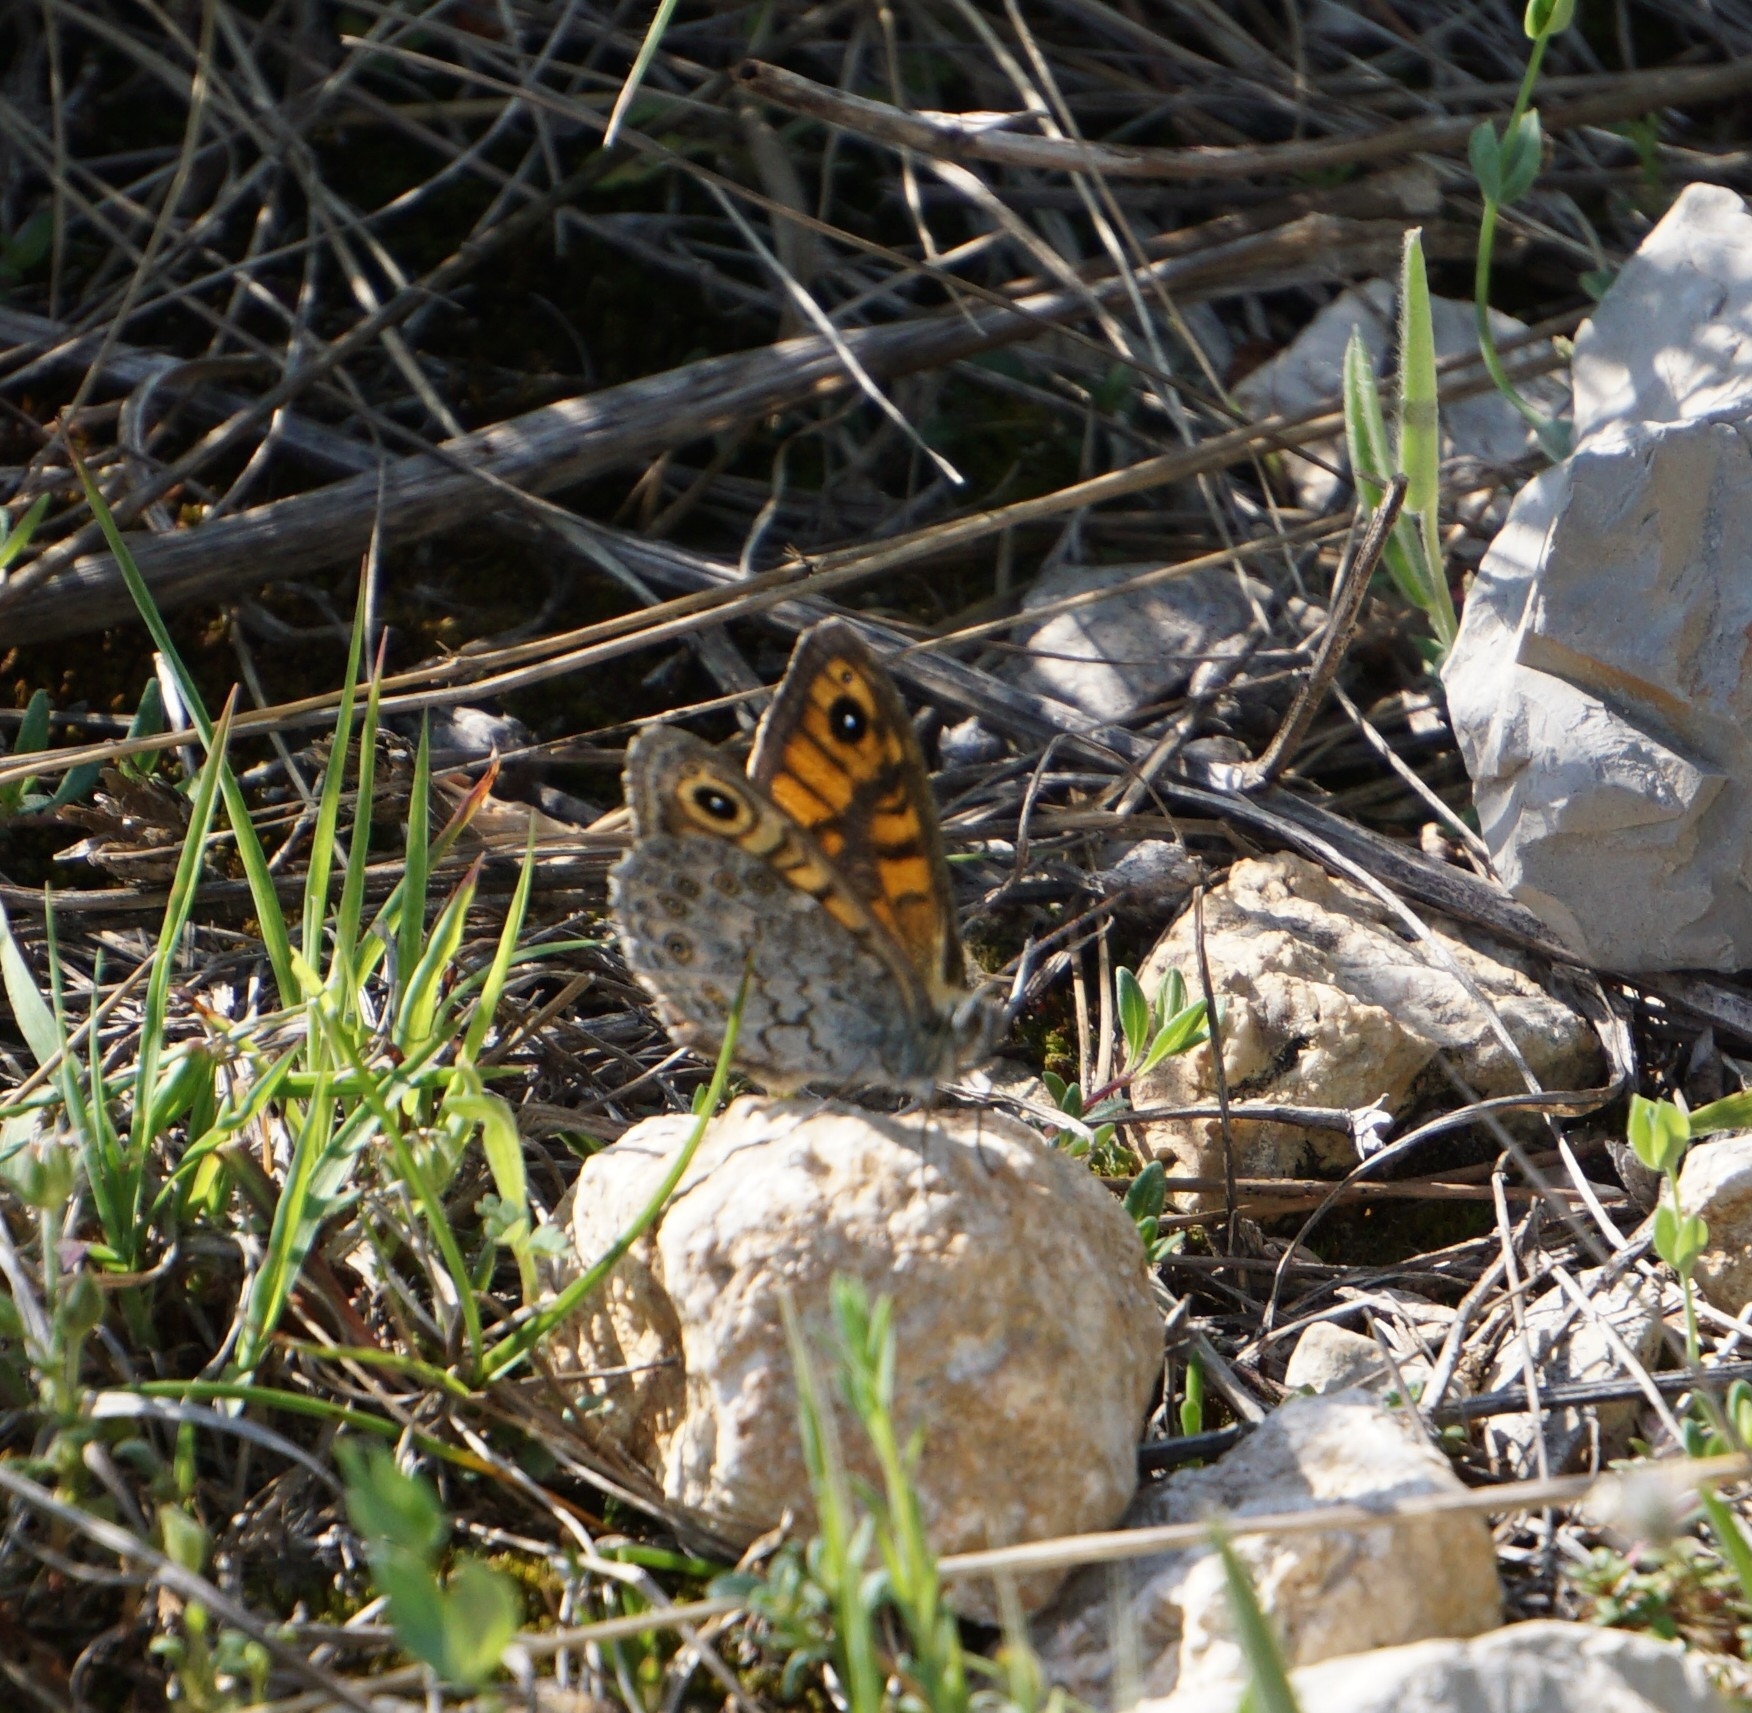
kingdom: Animalia
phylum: Arthropoda
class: Insecta
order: Lepidoptera
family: Nymphalidae
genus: Pararge
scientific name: Pararge Lasiommata megera
